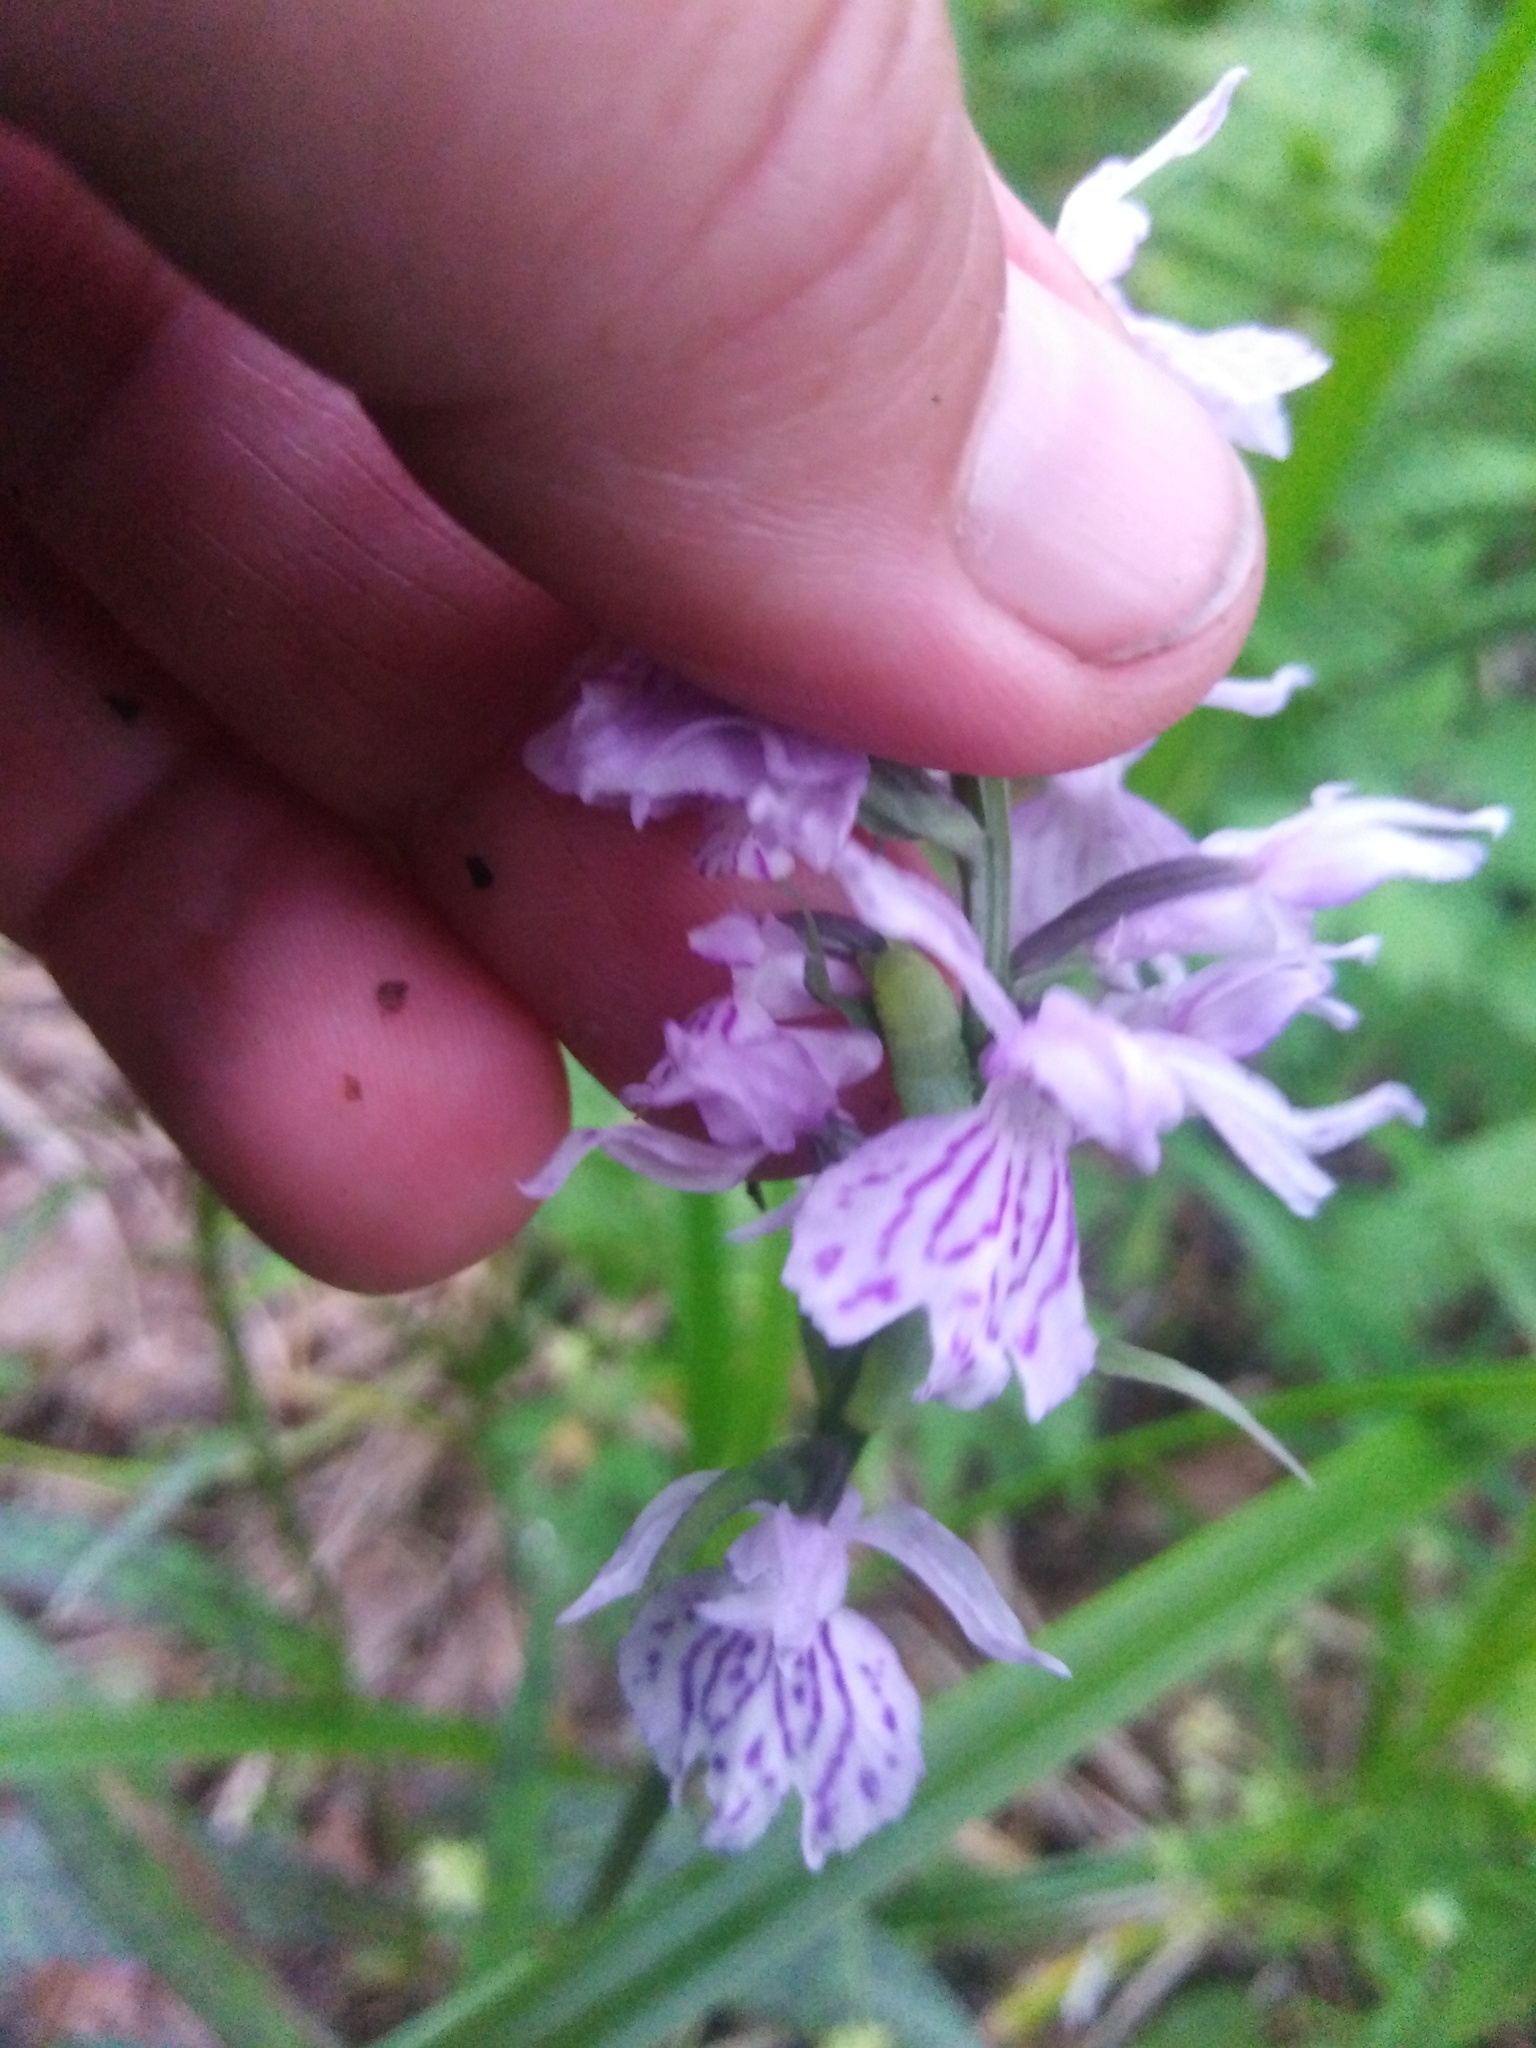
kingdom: Plantae
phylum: Tracheophyta
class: Liliopsida
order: Asparagales
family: Orchidaceae
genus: Dactylorhiza
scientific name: Dactylorhiza maculata
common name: Heath spotted-orchid
